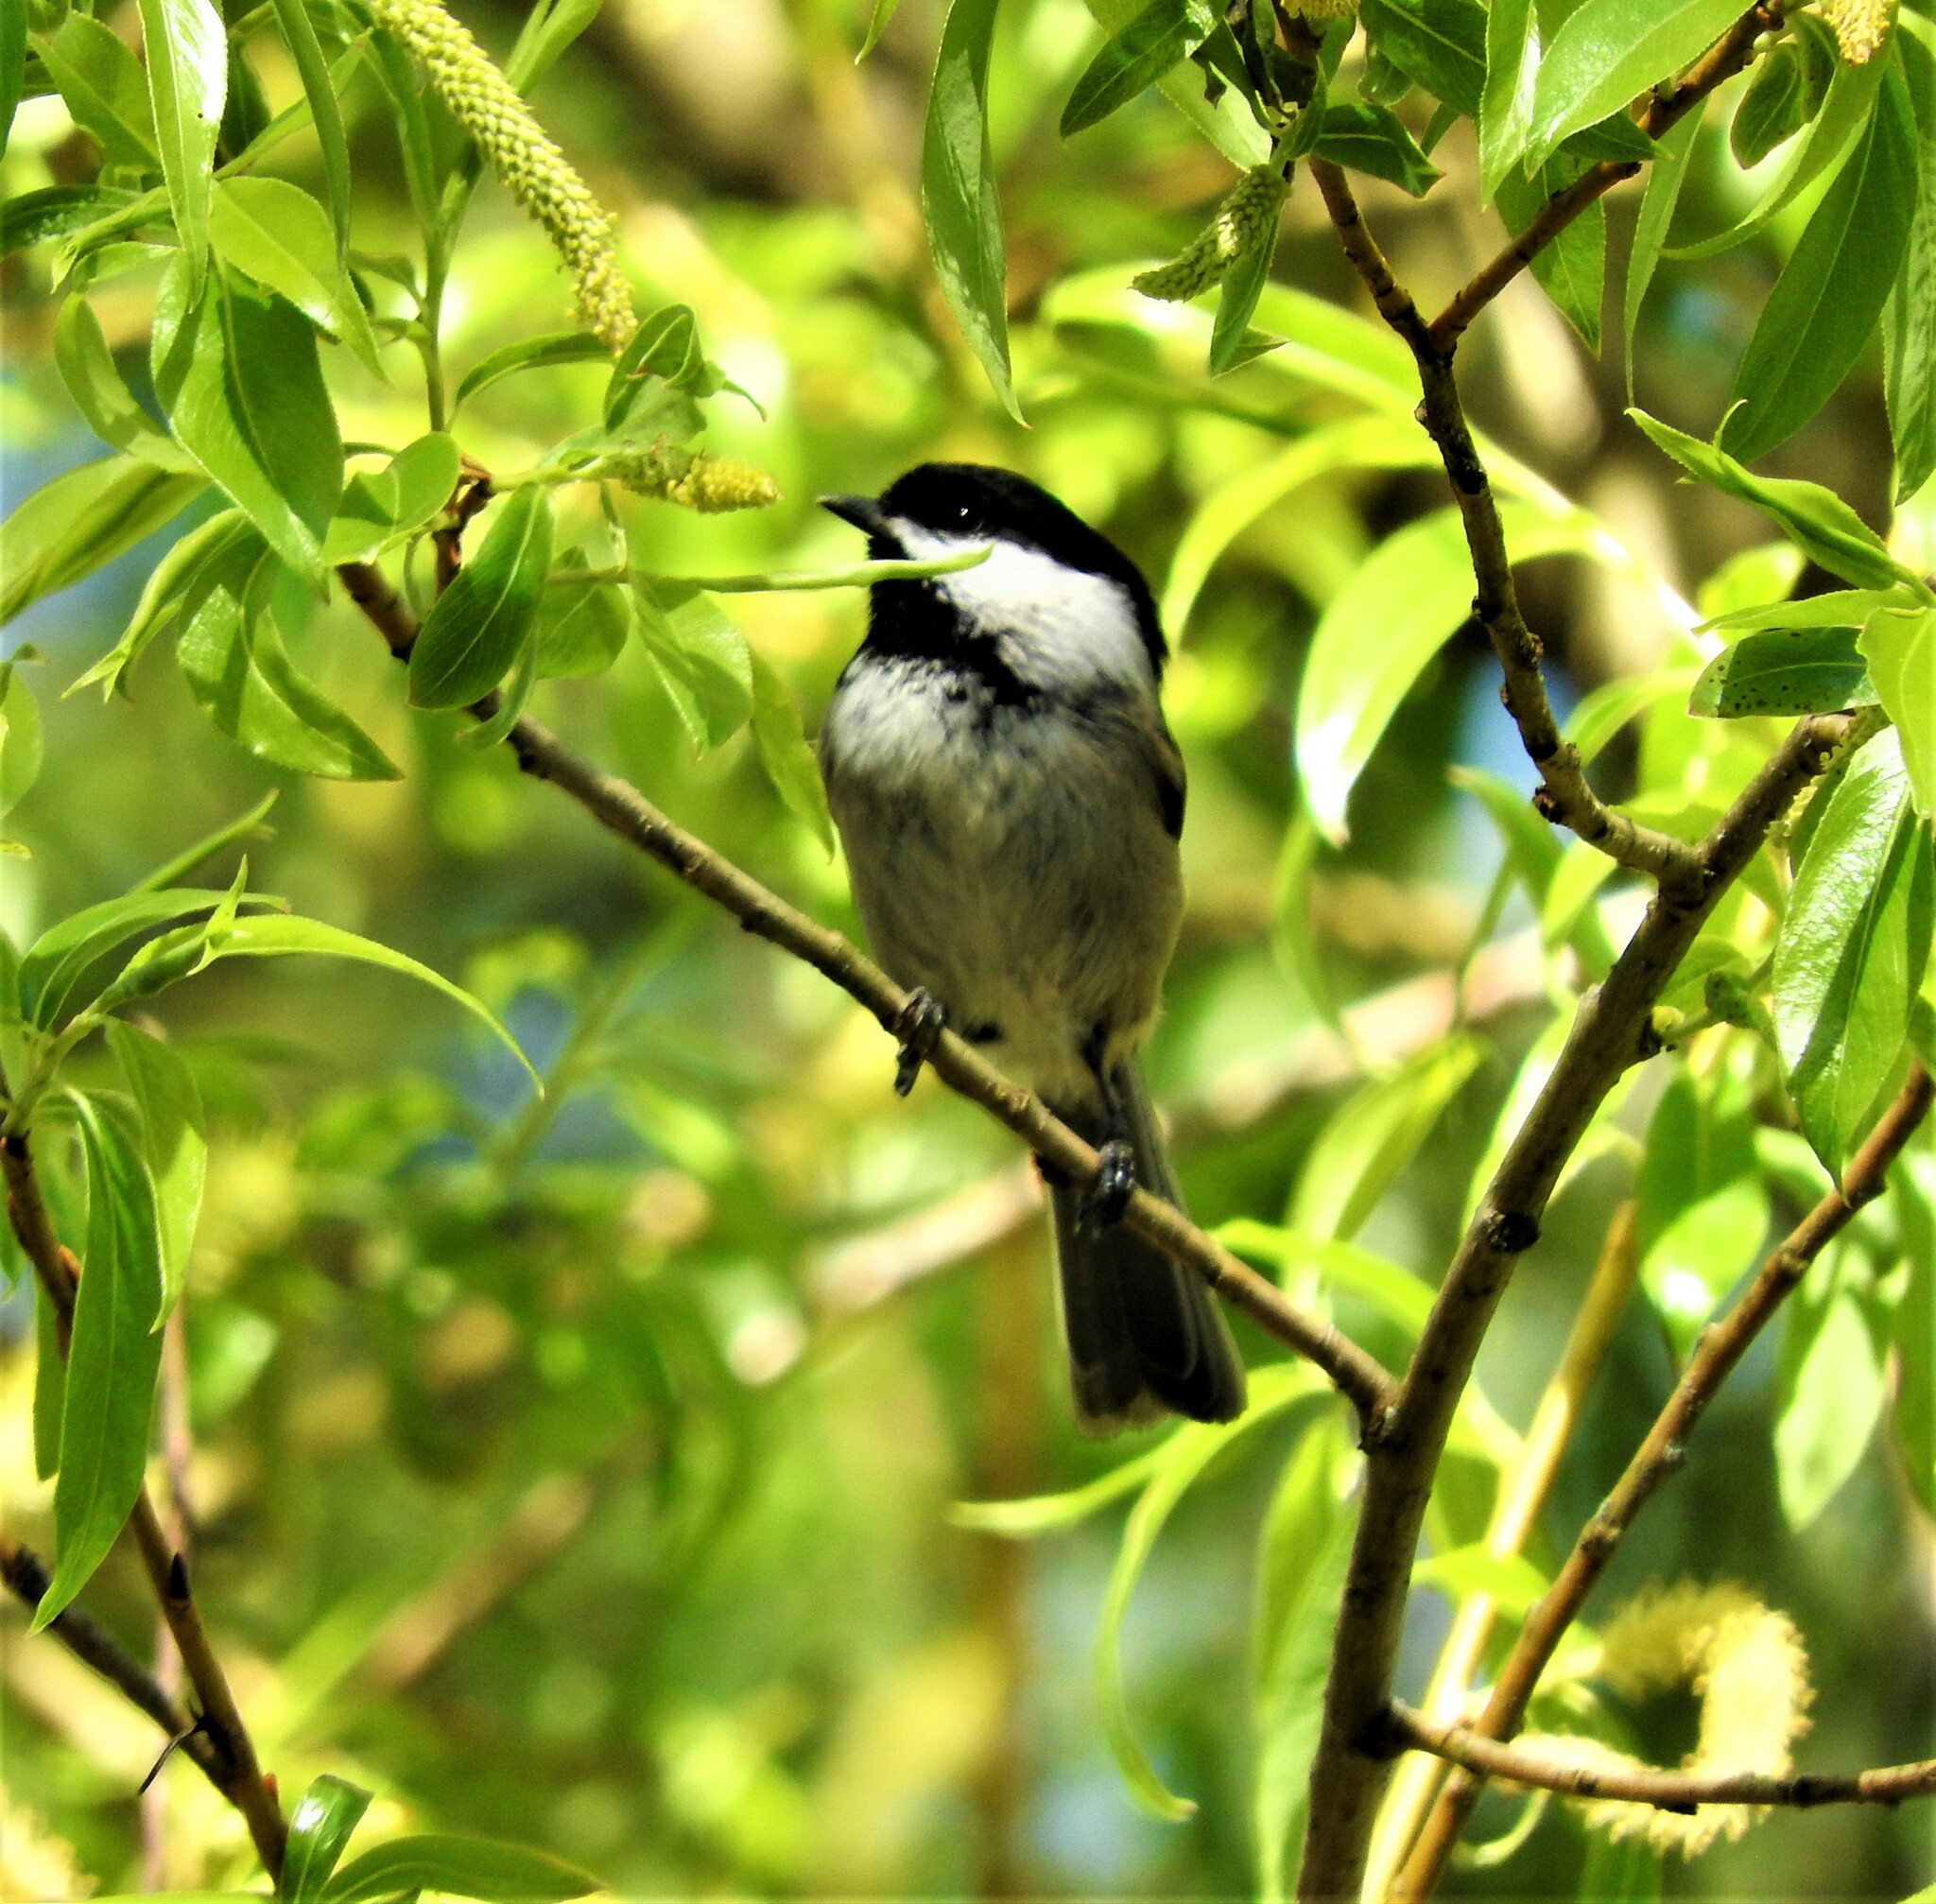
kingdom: Animalia
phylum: Chordata
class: Aves
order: Passeriformes
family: Paridae
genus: Poecile
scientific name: Poecile atricapillus
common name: Black-capped chickadee
